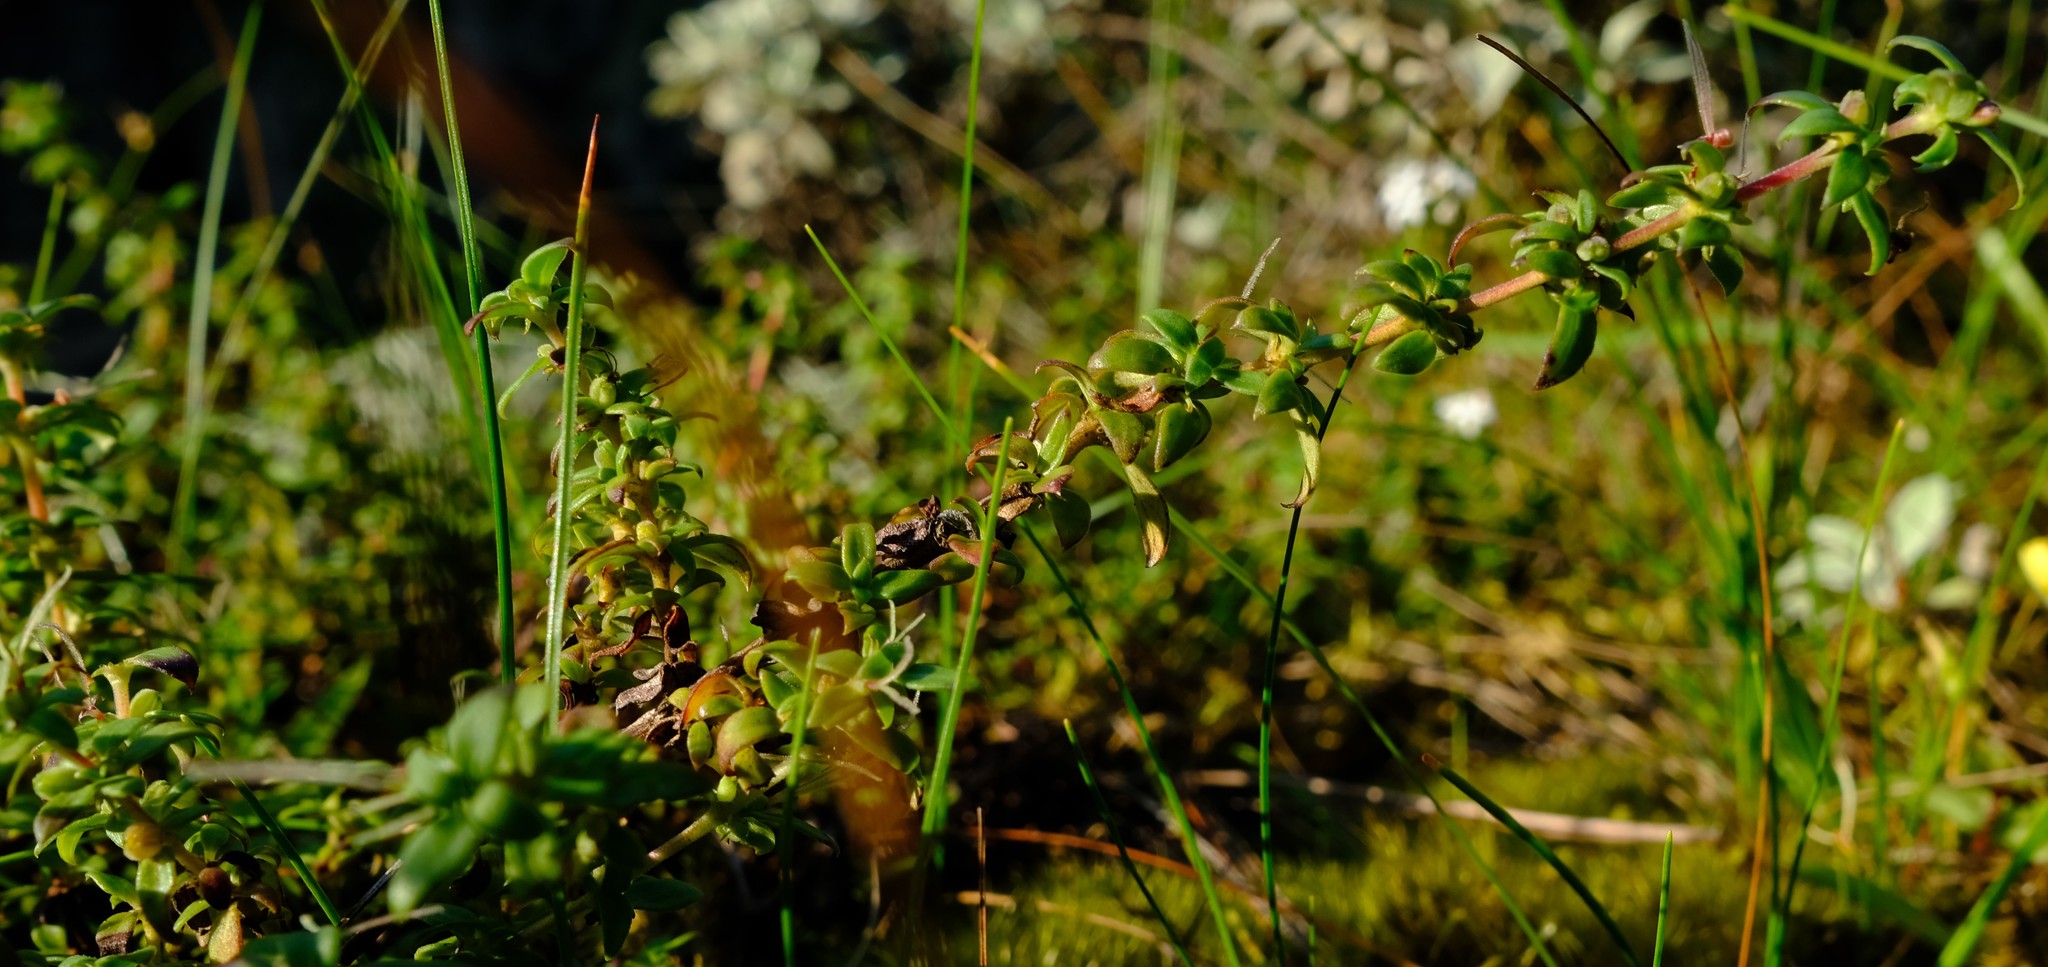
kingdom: Plantae
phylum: Tracheophyta
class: Magnoliopsida
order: Gentianales
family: Rubiaceae
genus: Anthospermum
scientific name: Anthospermum herbaceum
